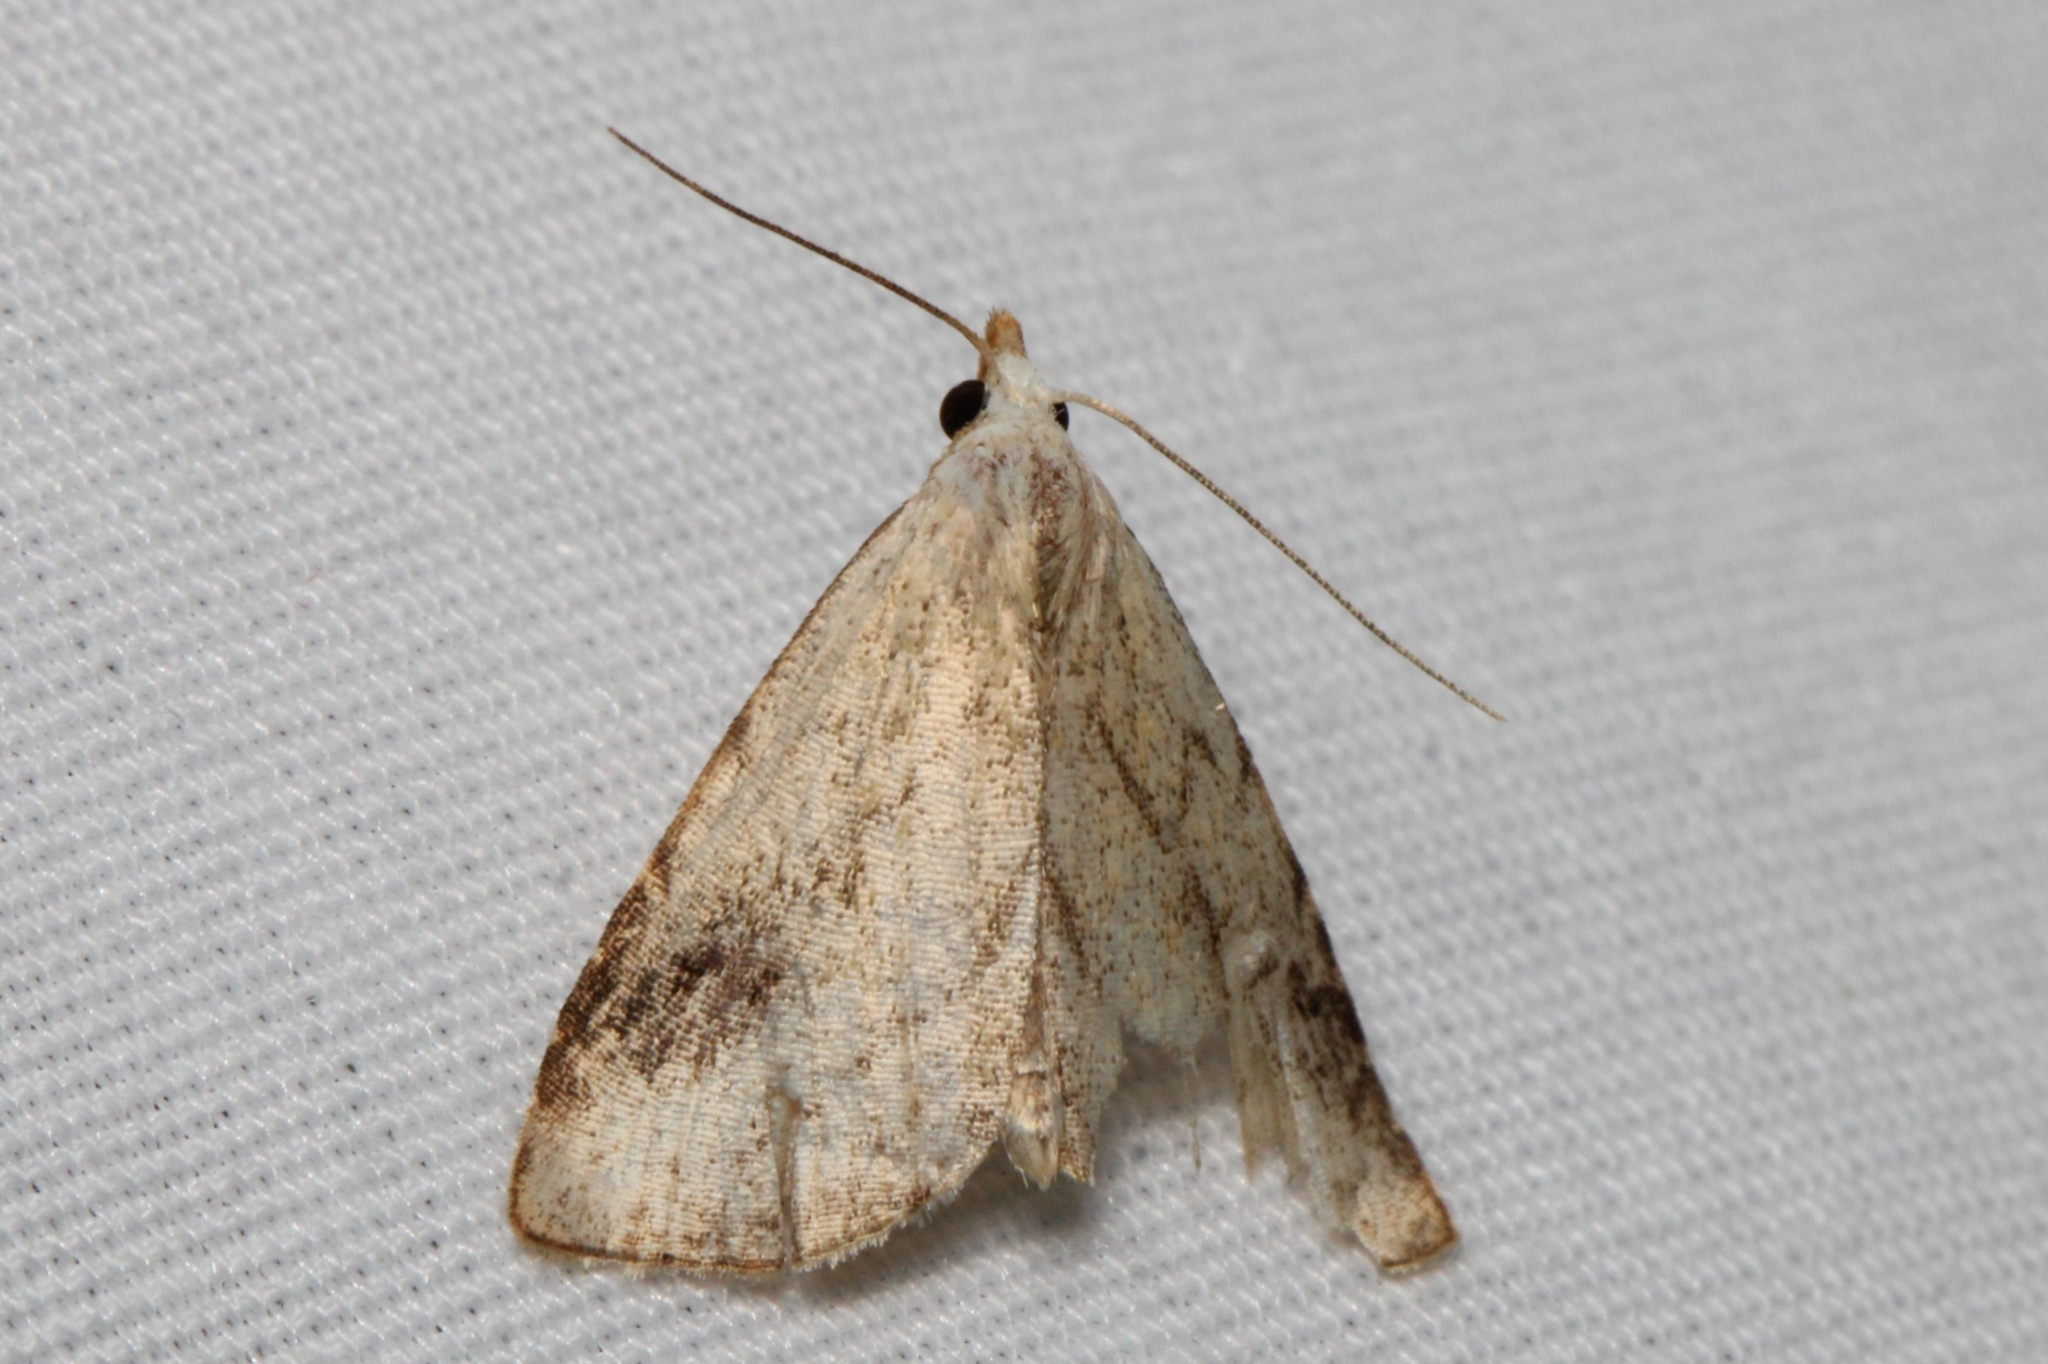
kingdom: Animalia
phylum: Arthropoda
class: Insecta
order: Lepidoptera
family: Erebidae
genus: Rivula
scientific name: Rivula propinqualis
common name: Spotted grass moth
